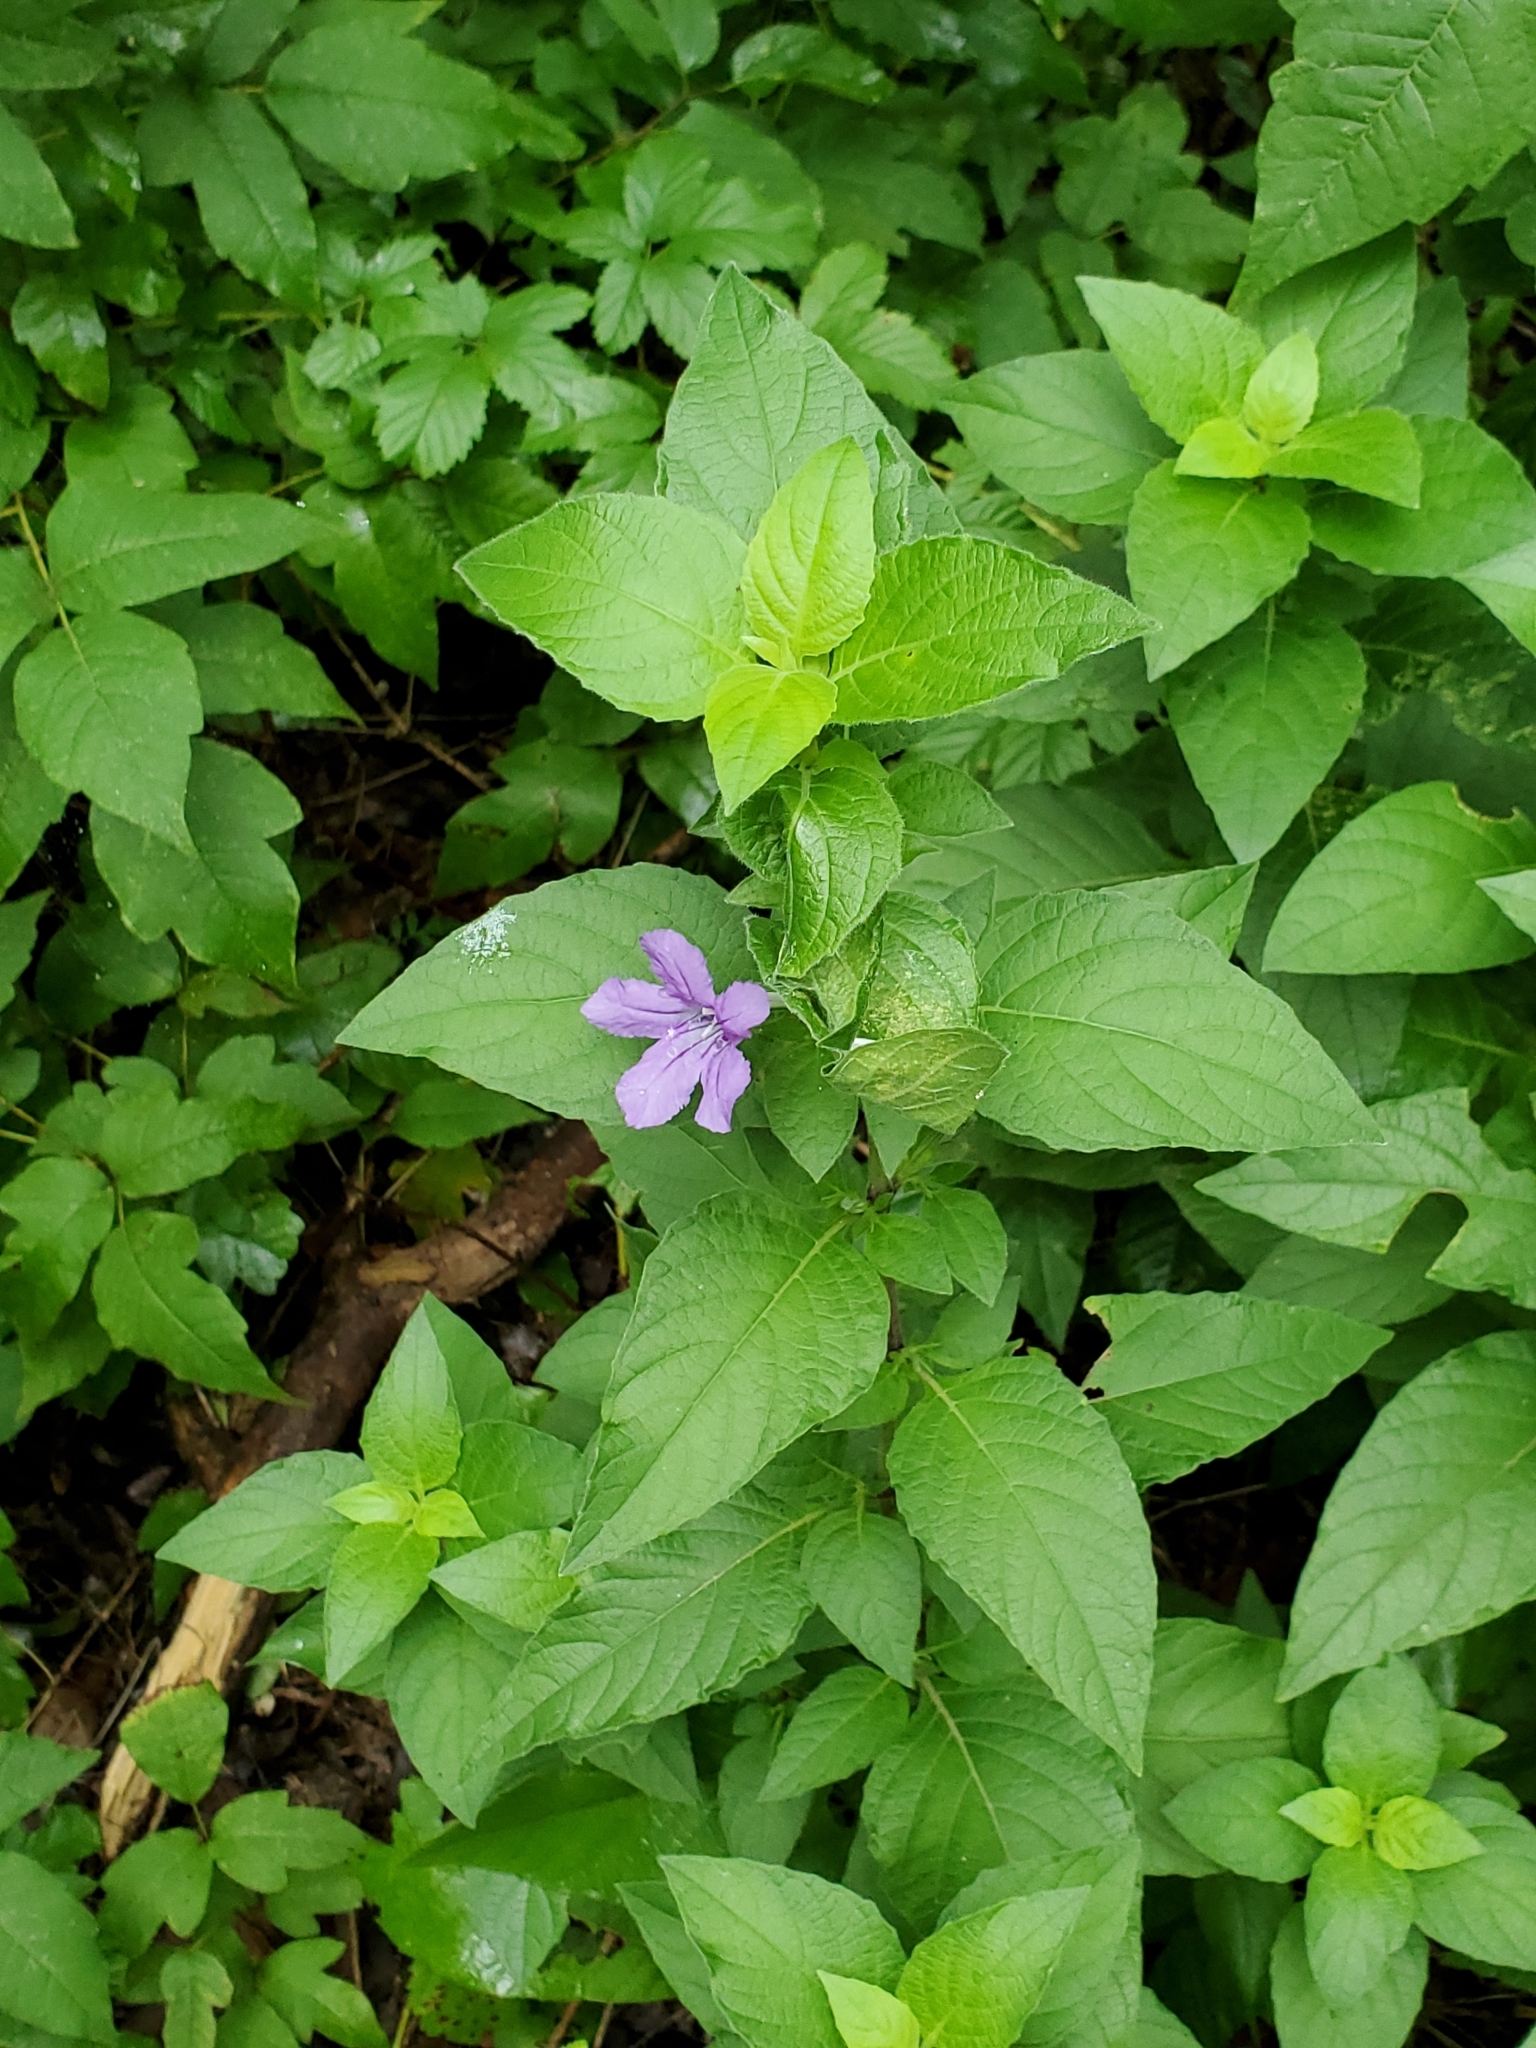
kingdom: Plantae
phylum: Tracheophyta
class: Magnoliopsida
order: Lamiales
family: Acanthaceae
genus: Ruellia
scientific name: Ruellia drummondiana
